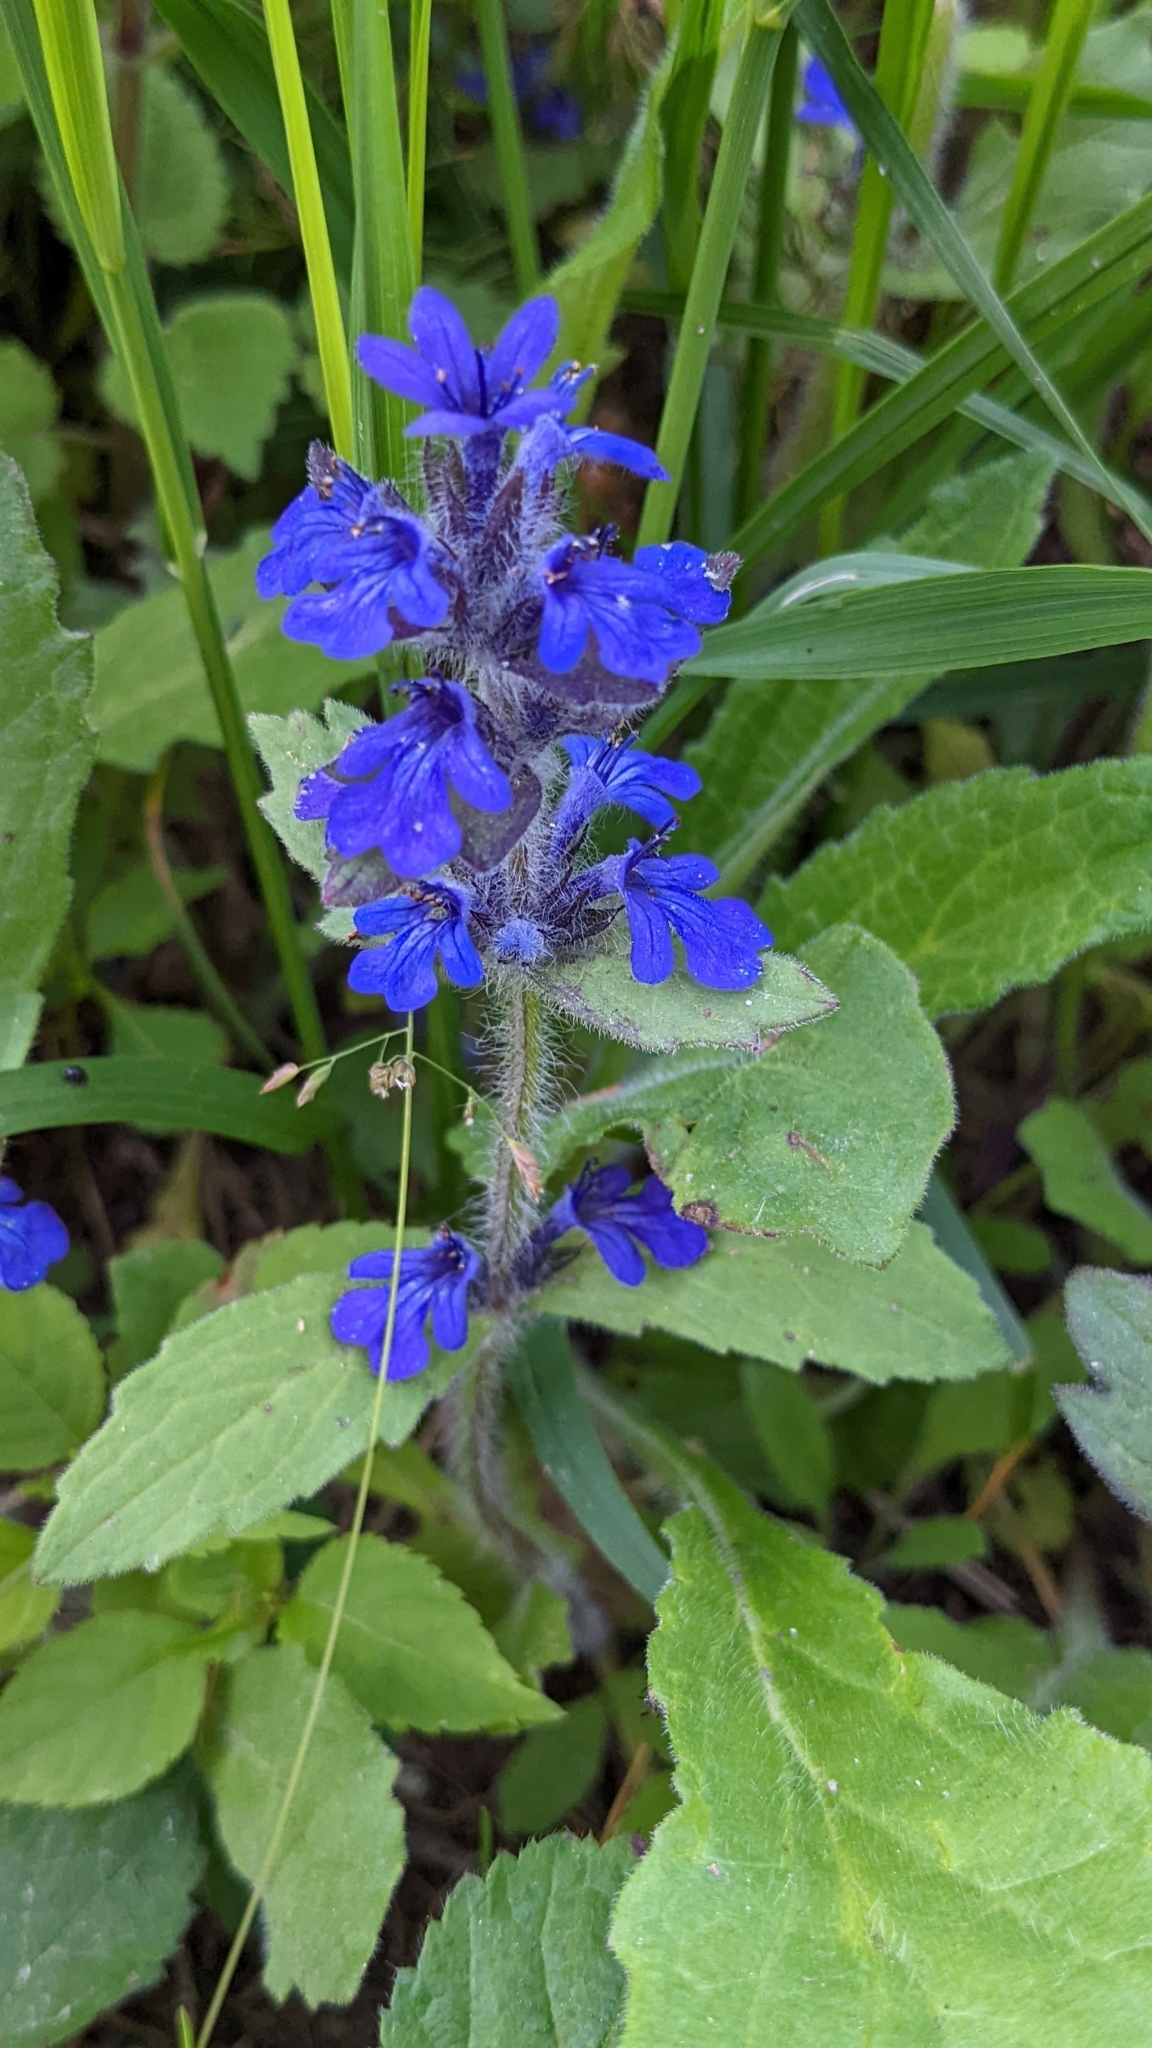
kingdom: Plantae
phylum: Tracheophyta
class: Magnoliopsida
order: Lamiales
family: Lamiaceae
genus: Ajuga
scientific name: Ajuga genevensis
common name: Blue bugle
